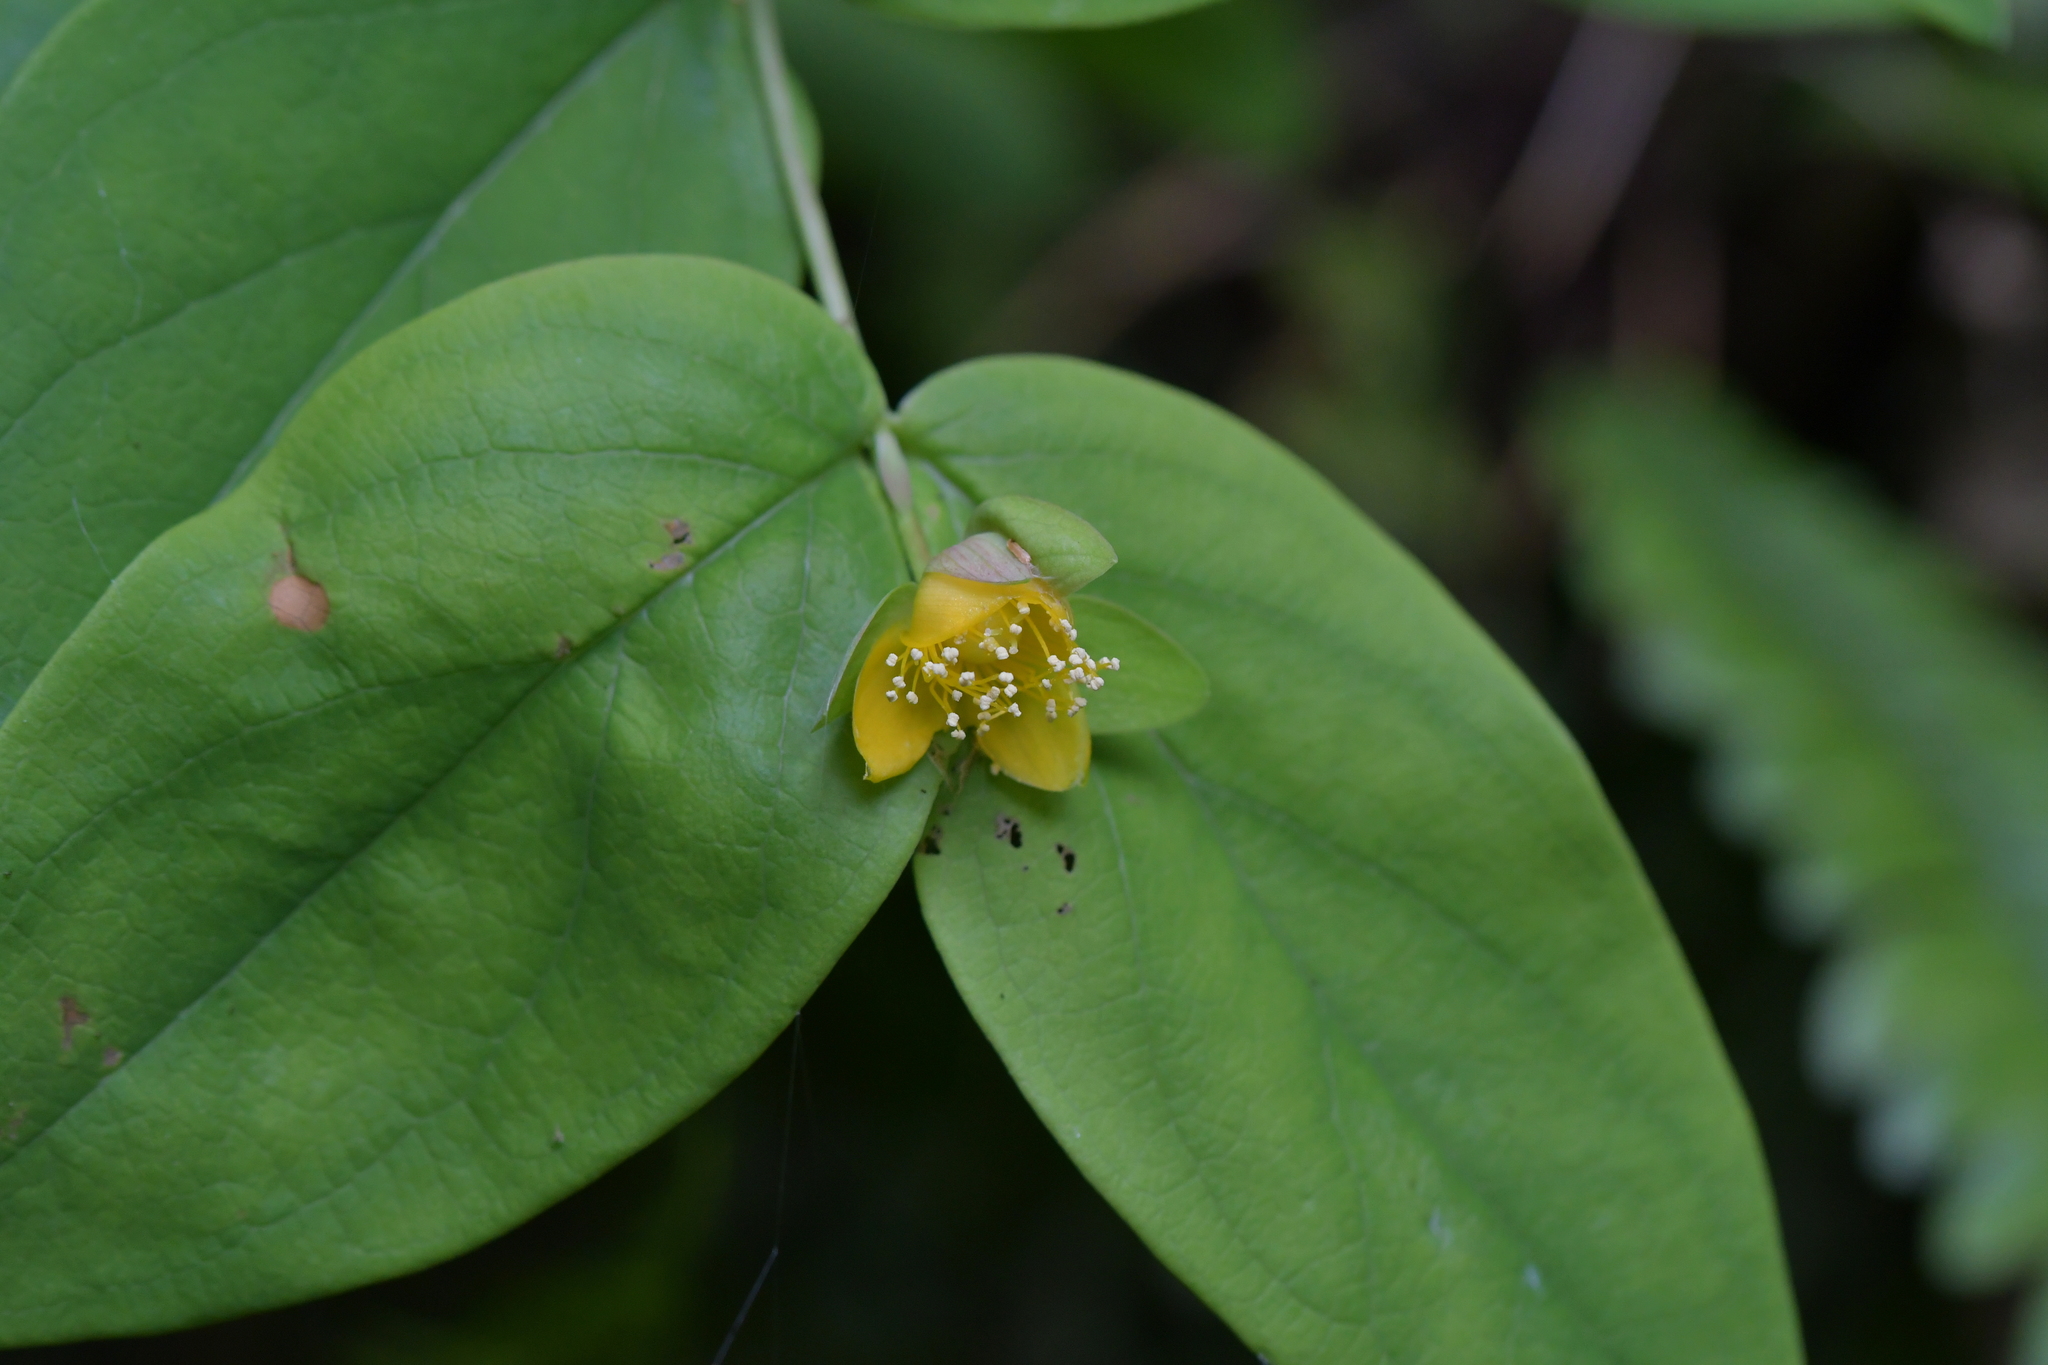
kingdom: Plantae
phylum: Tracheophyta
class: Magnoliopsida
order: Malpighiales
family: Hypericaceae
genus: Hypericum
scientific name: Hypericum androsaemum
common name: Sweet-amber
